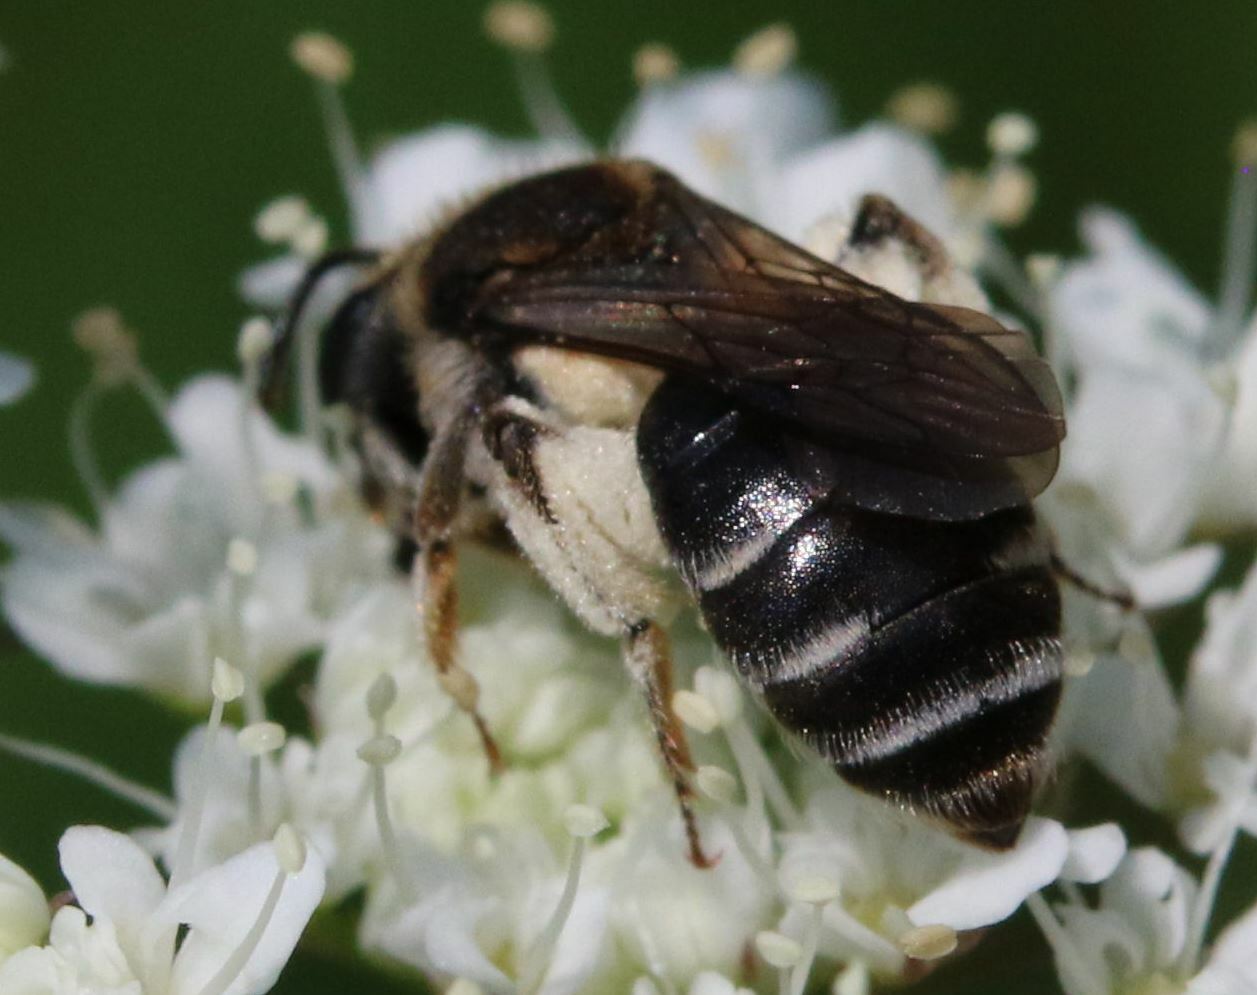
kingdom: Animalia
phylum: Arthropoda
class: Insecta
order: Hymenoptera
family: Andrenidae
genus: Andrena
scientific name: Andrena colletiformis
